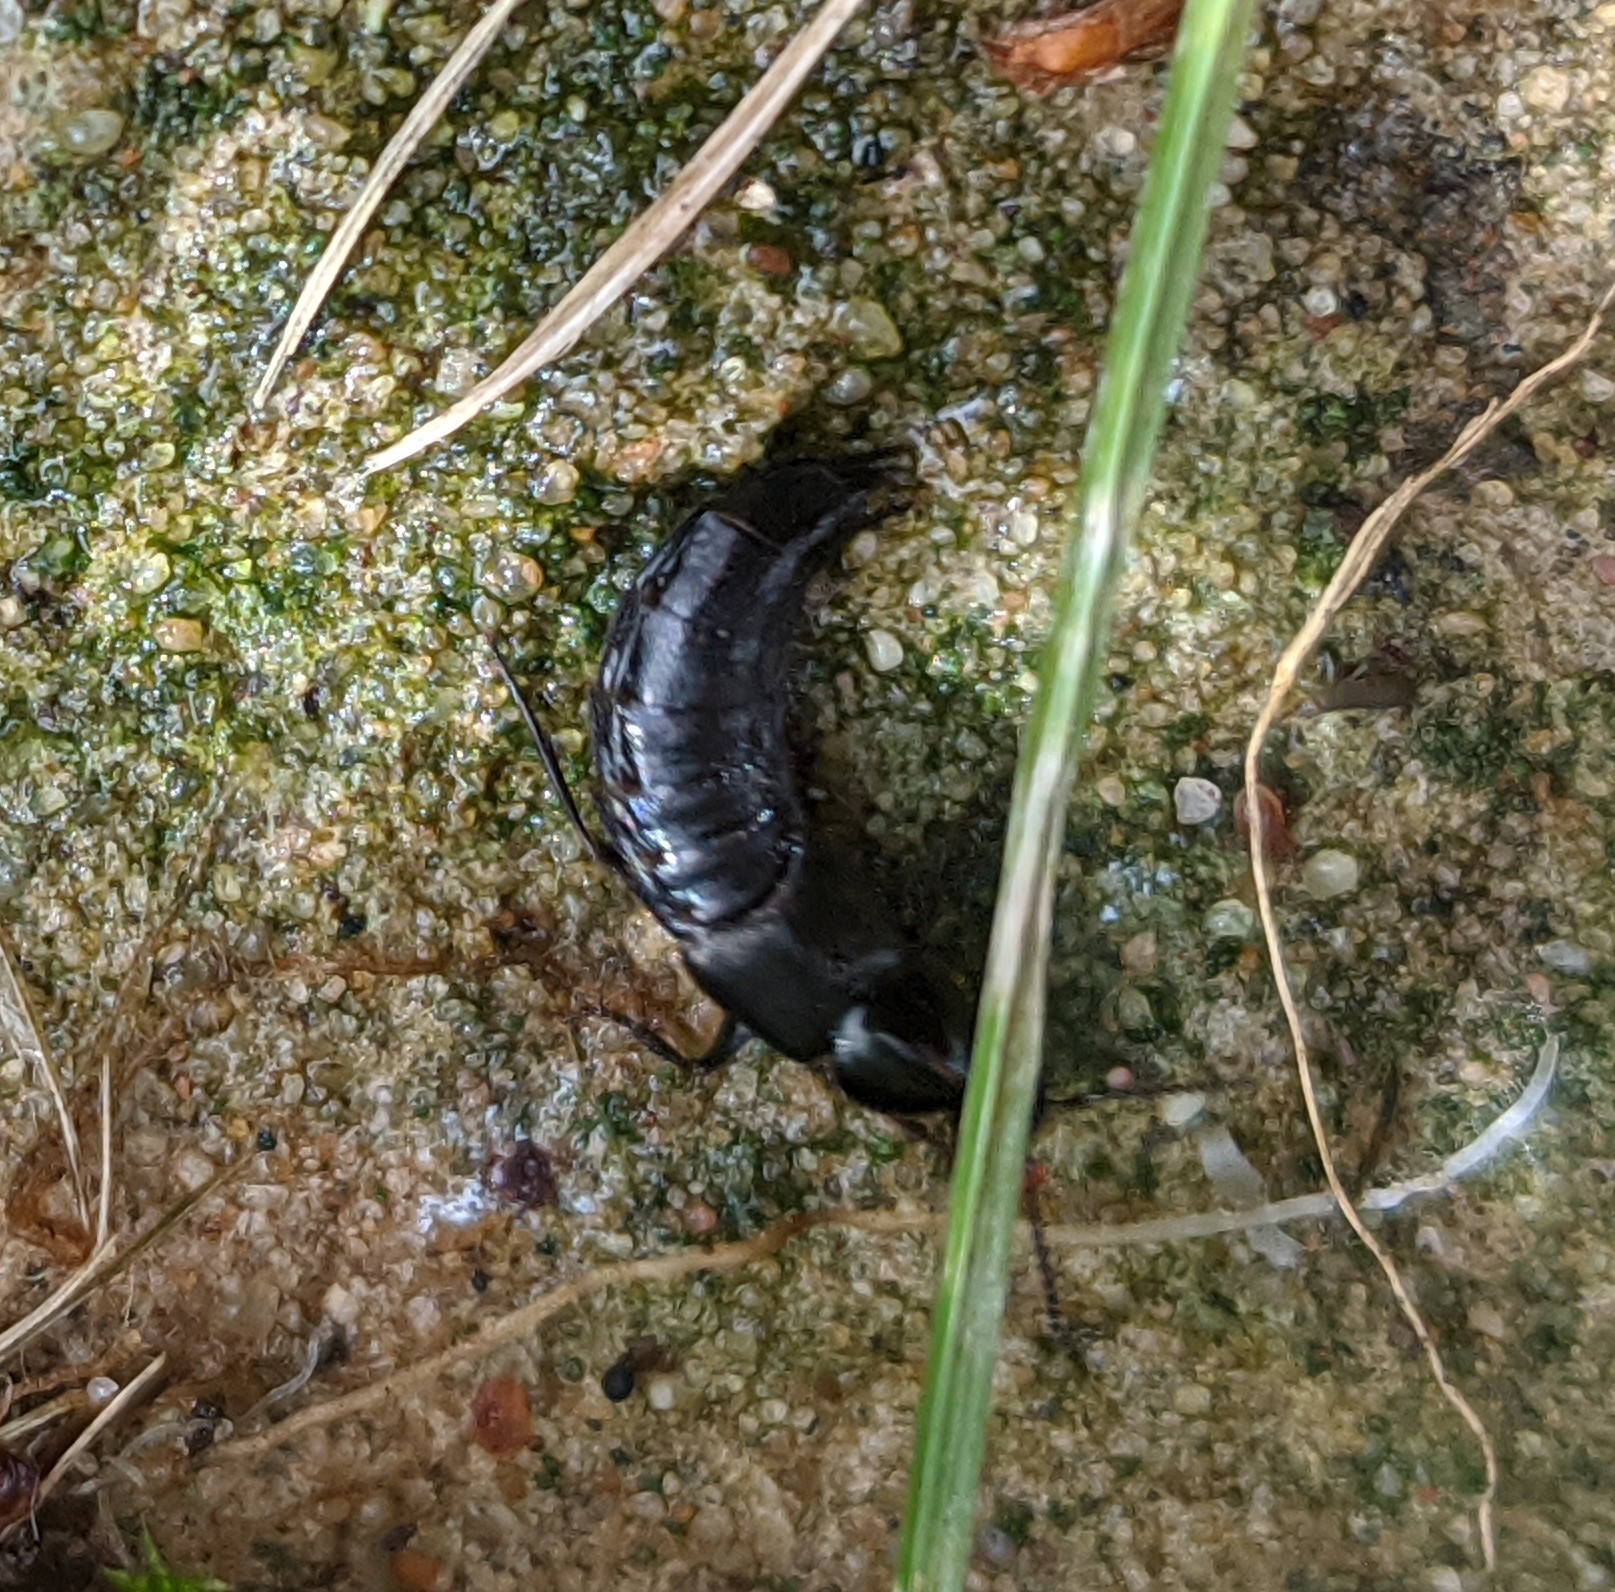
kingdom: Animalia
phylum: Arthropoda
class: Insecta
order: Coleoptera
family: Staphylinidae
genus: Philonthus
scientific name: Philonthus
